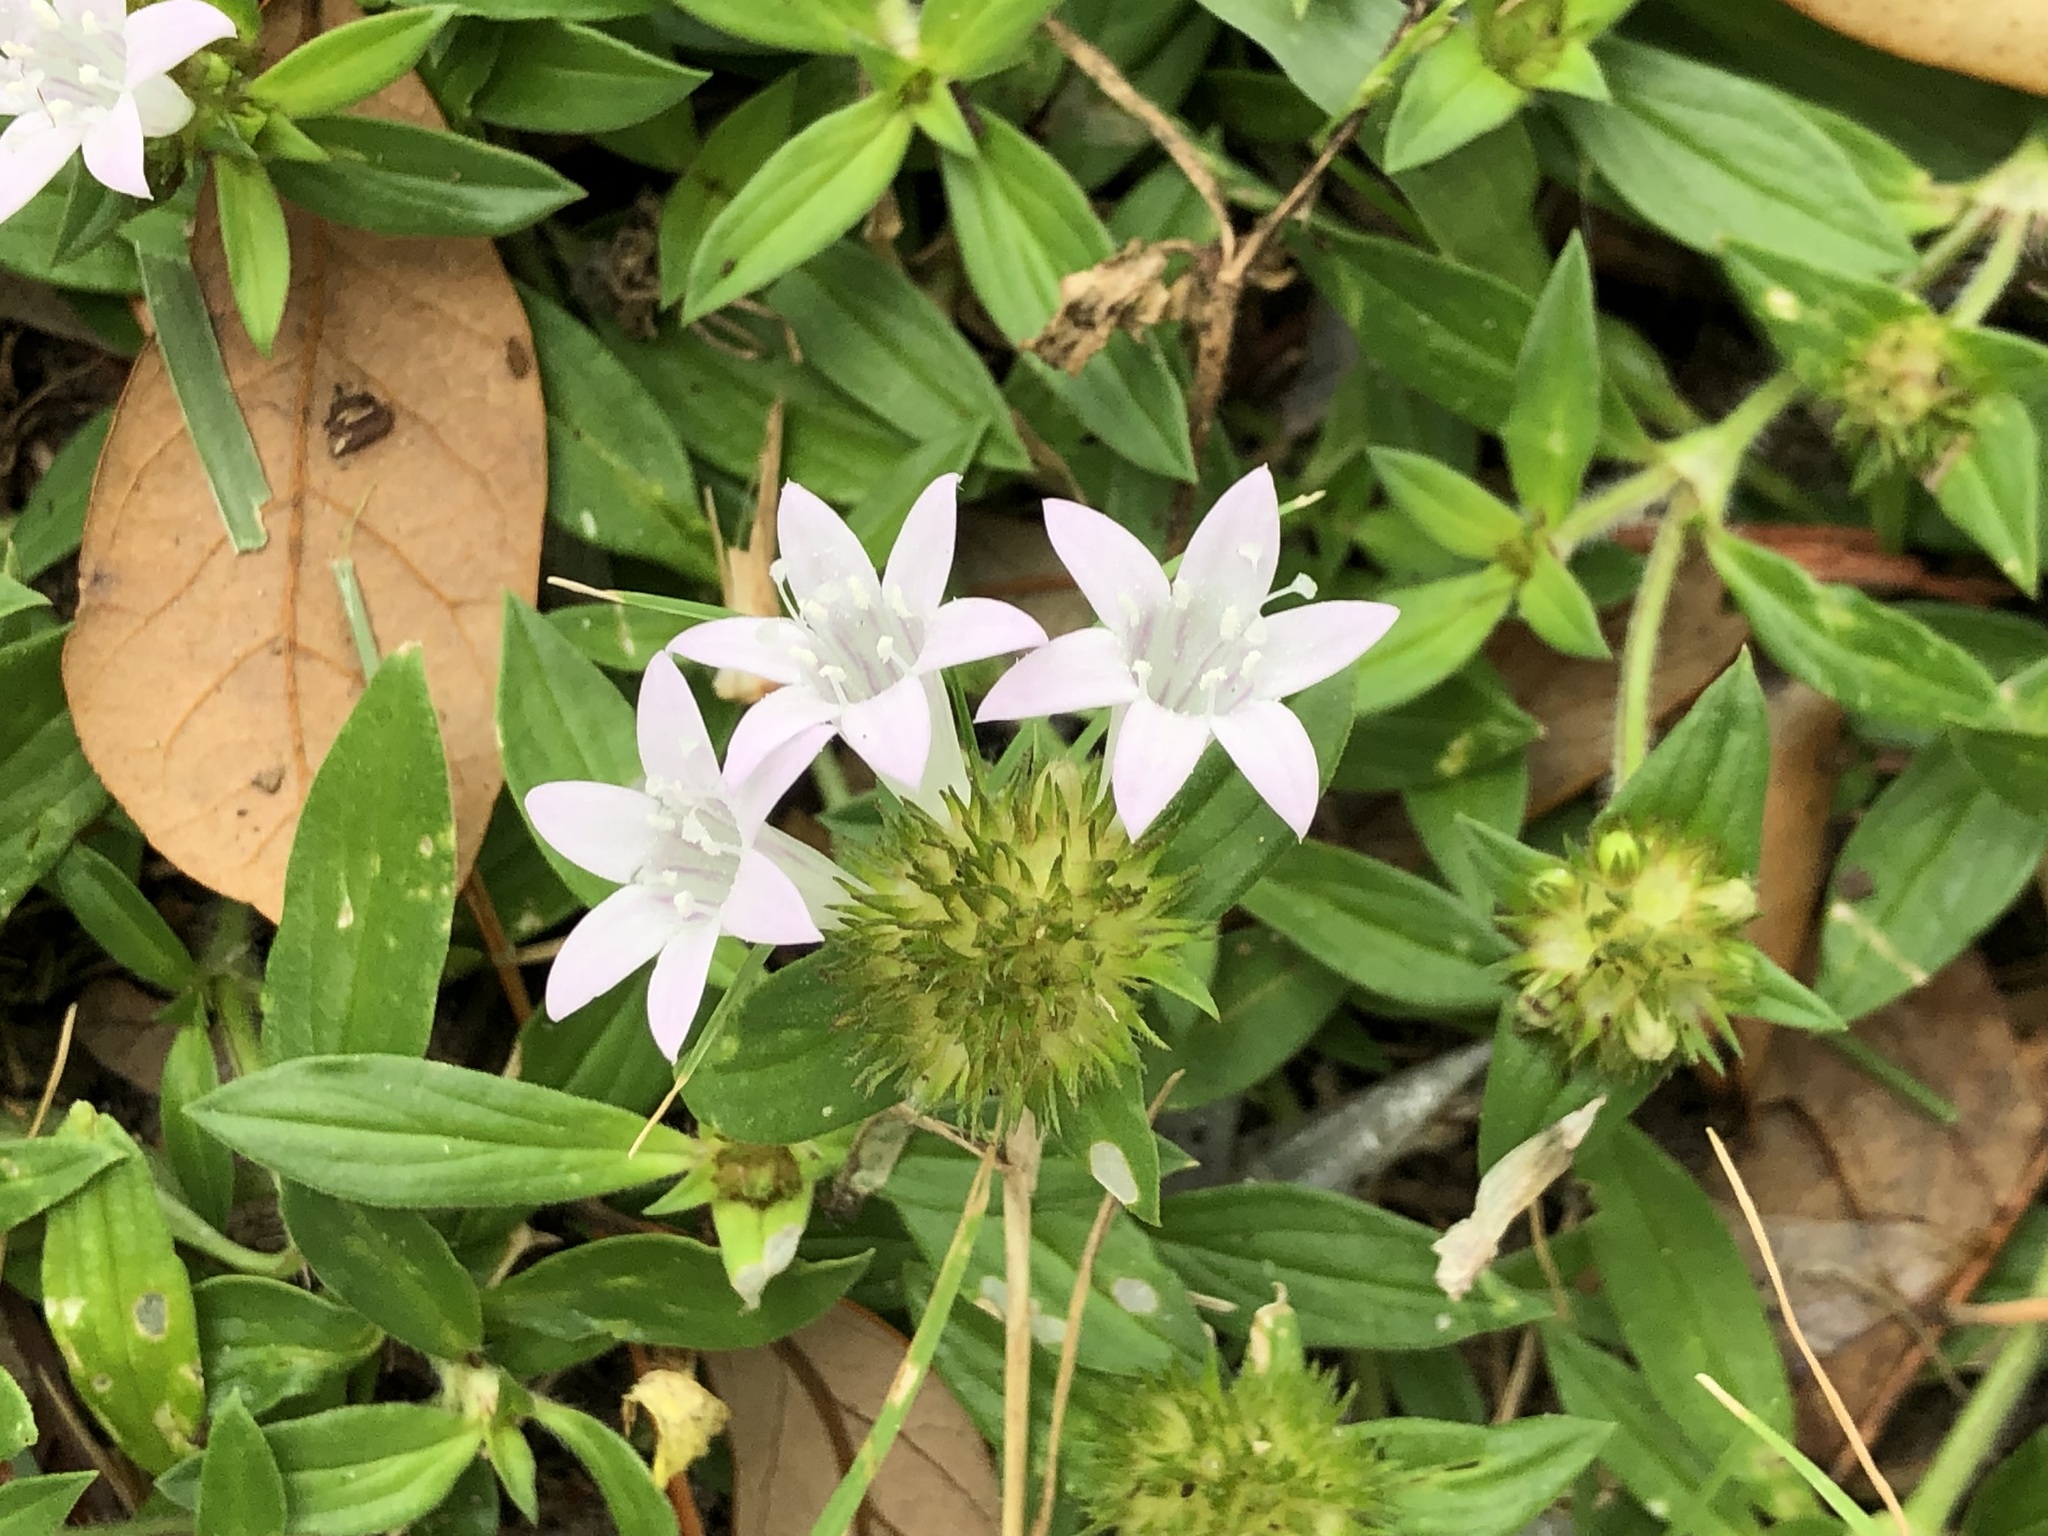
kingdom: Plantae
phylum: Tracheophyta
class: Magnoliopsida
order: Gentianales
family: Rubiaceae
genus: Richardia
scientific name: Richardia grandiflora
